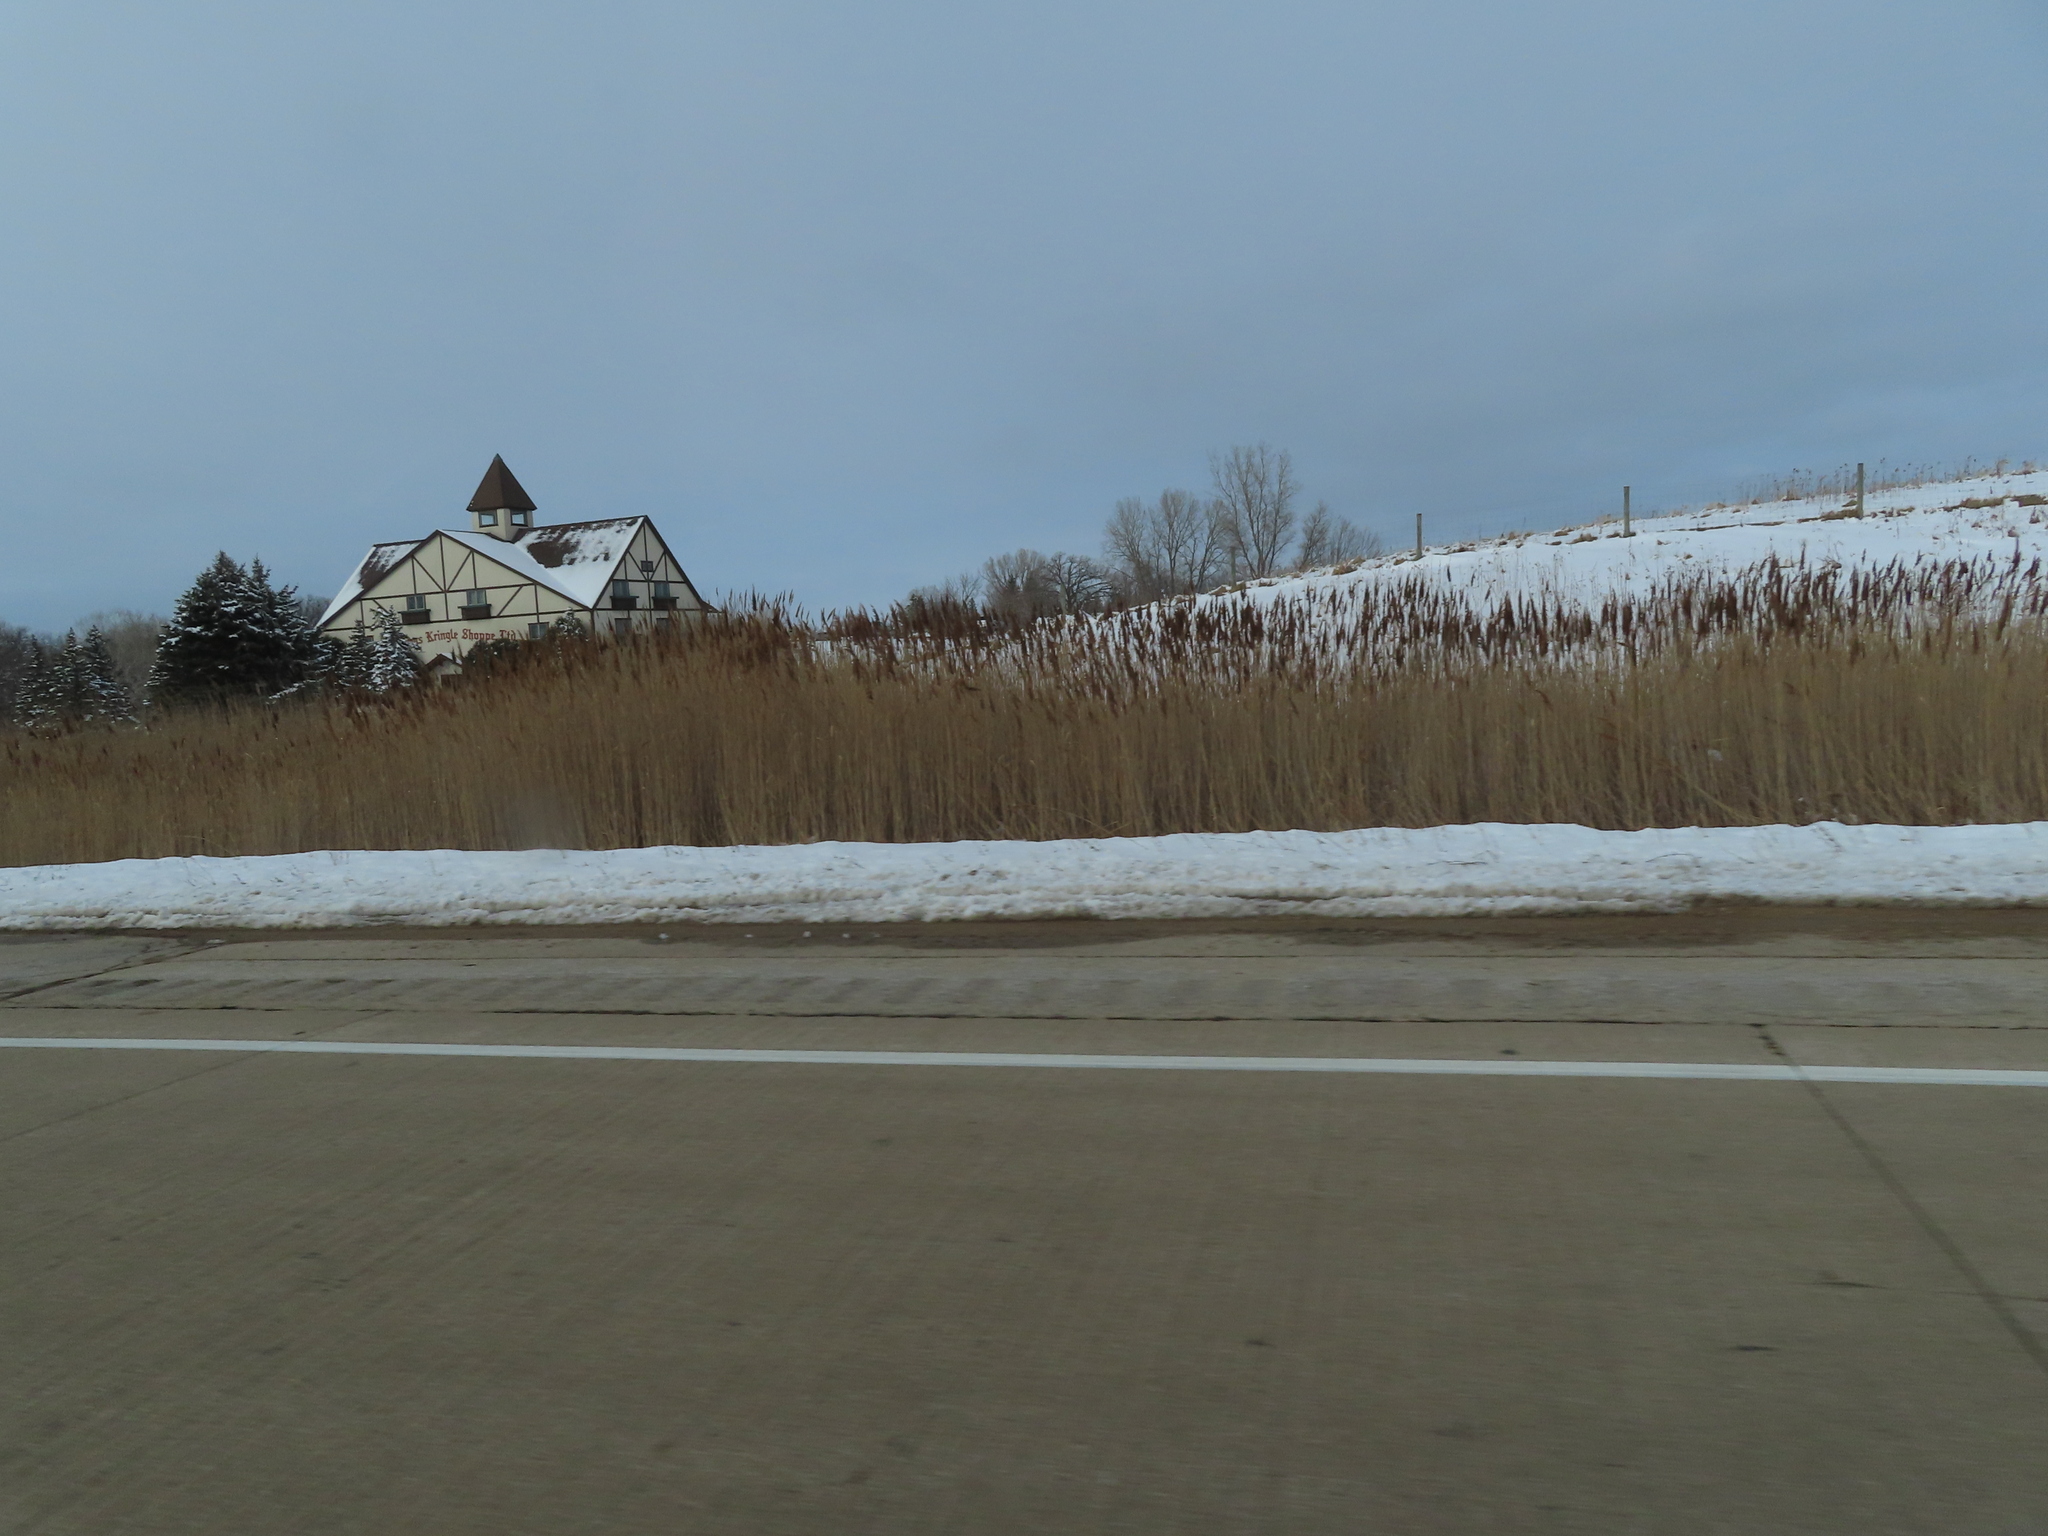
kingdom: Plantae
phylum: Tracheophyta
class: Liliopsida
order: Poales
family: Poaceae
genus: Phragmites
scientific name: Phragmites australis
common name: Common reed
